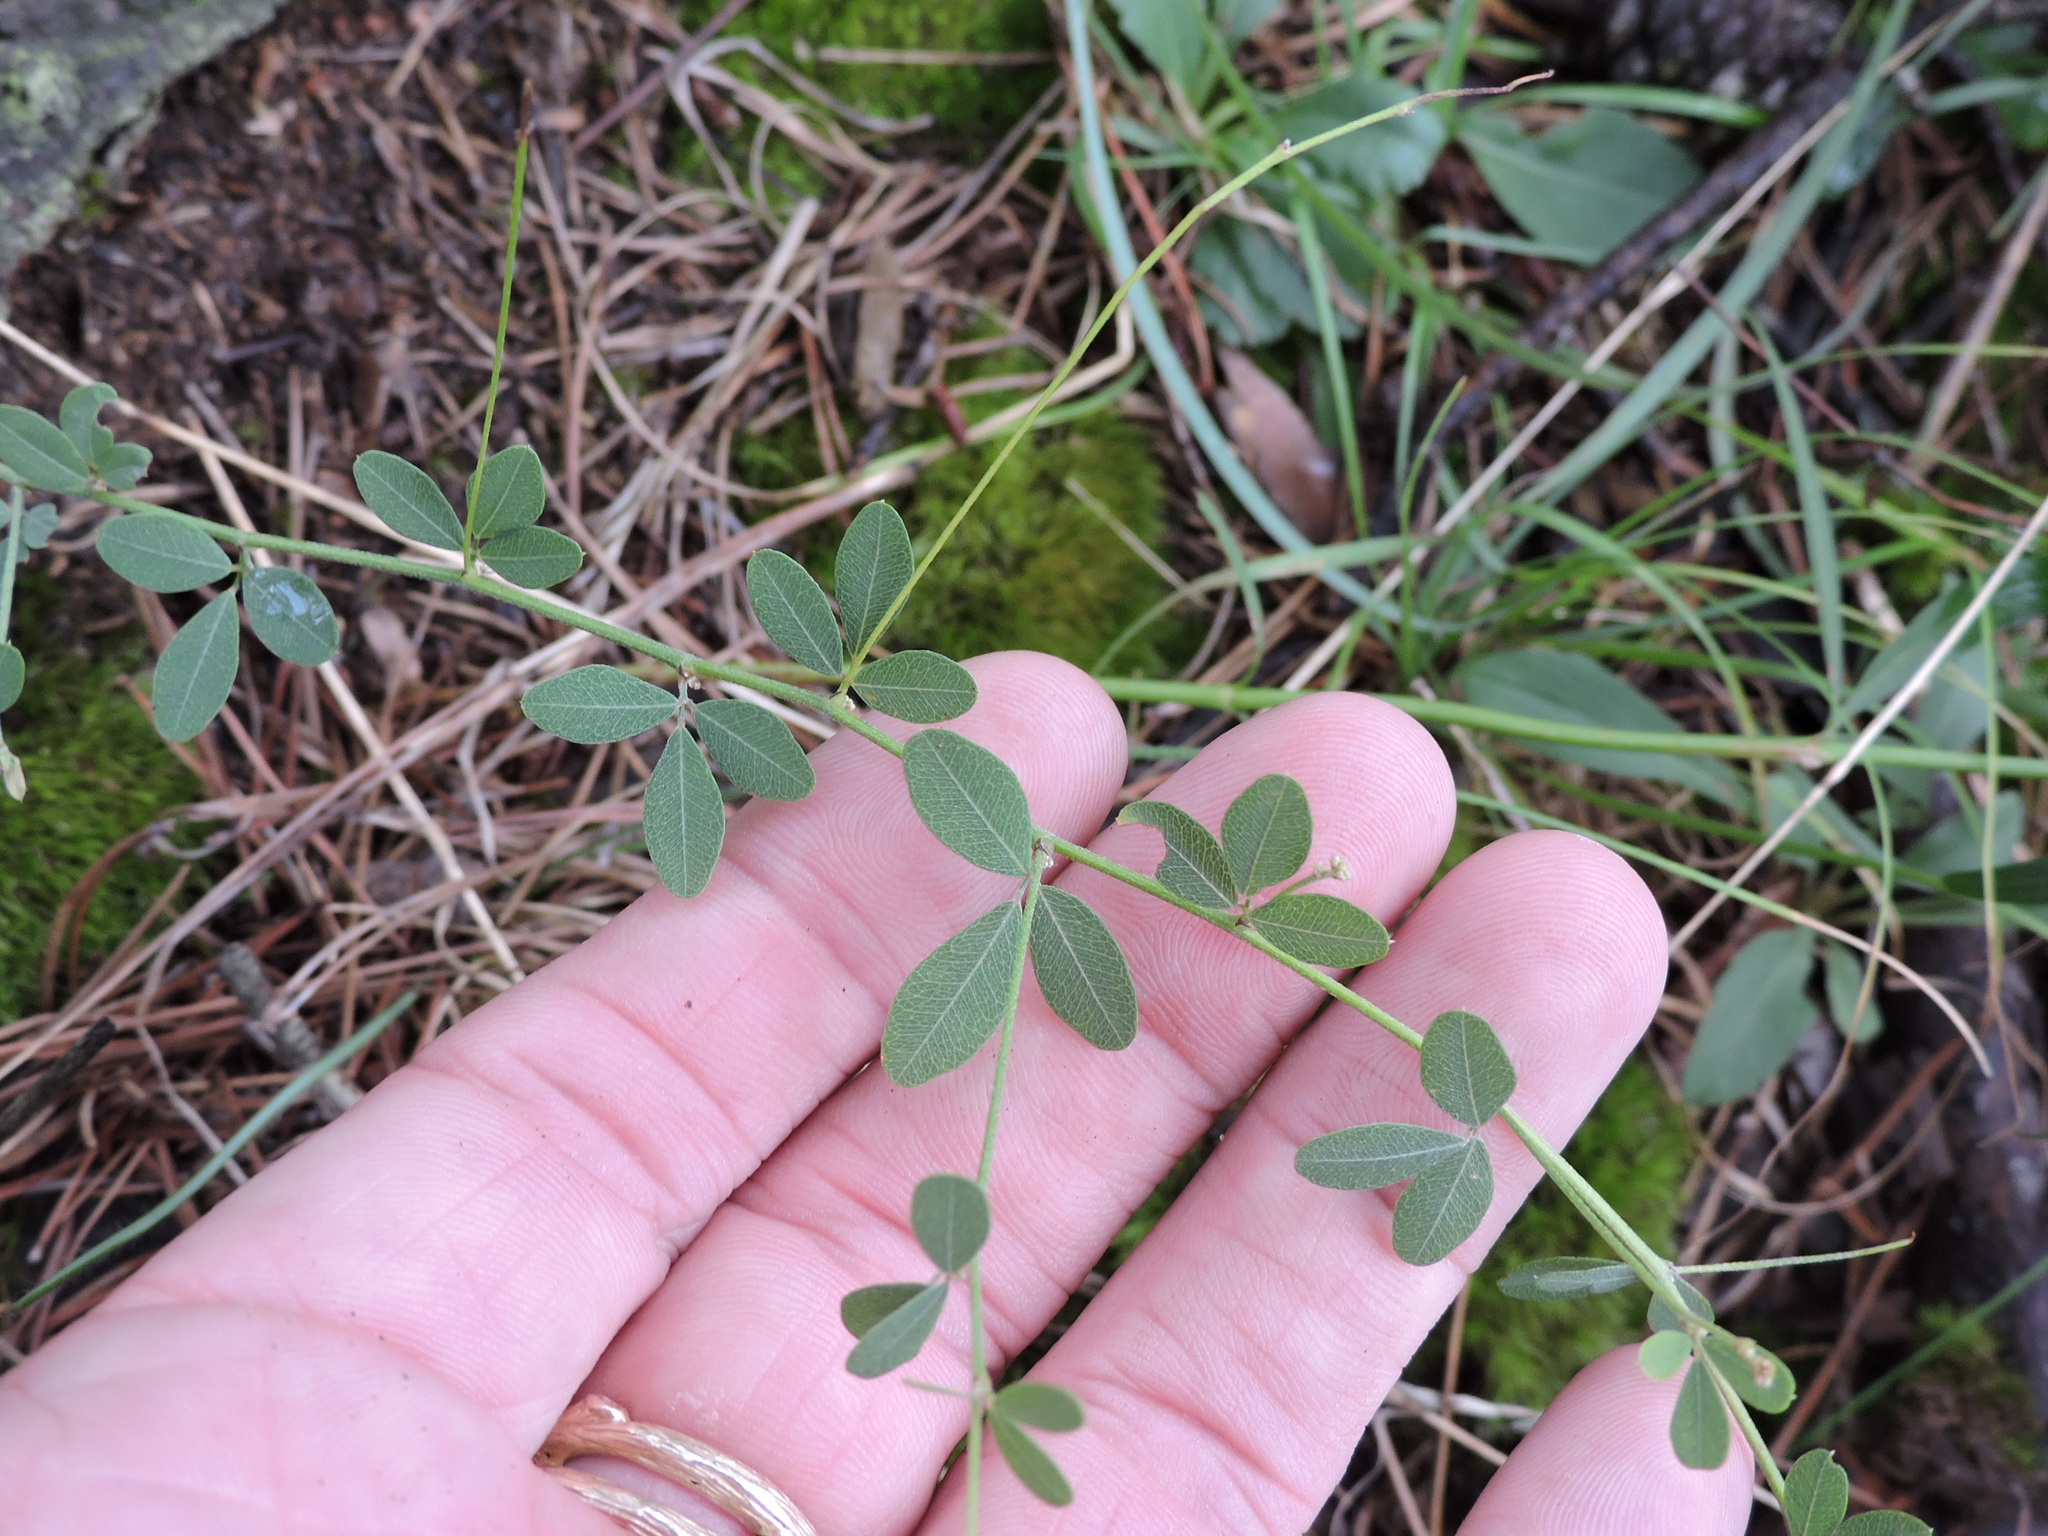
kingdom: Plantae
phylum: Tracheophyta
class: Magnoliopsida
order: Fabales
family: Fabaceae
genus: Lespedeza
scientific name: Lespedeza repens
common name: Creeping bush-clover
